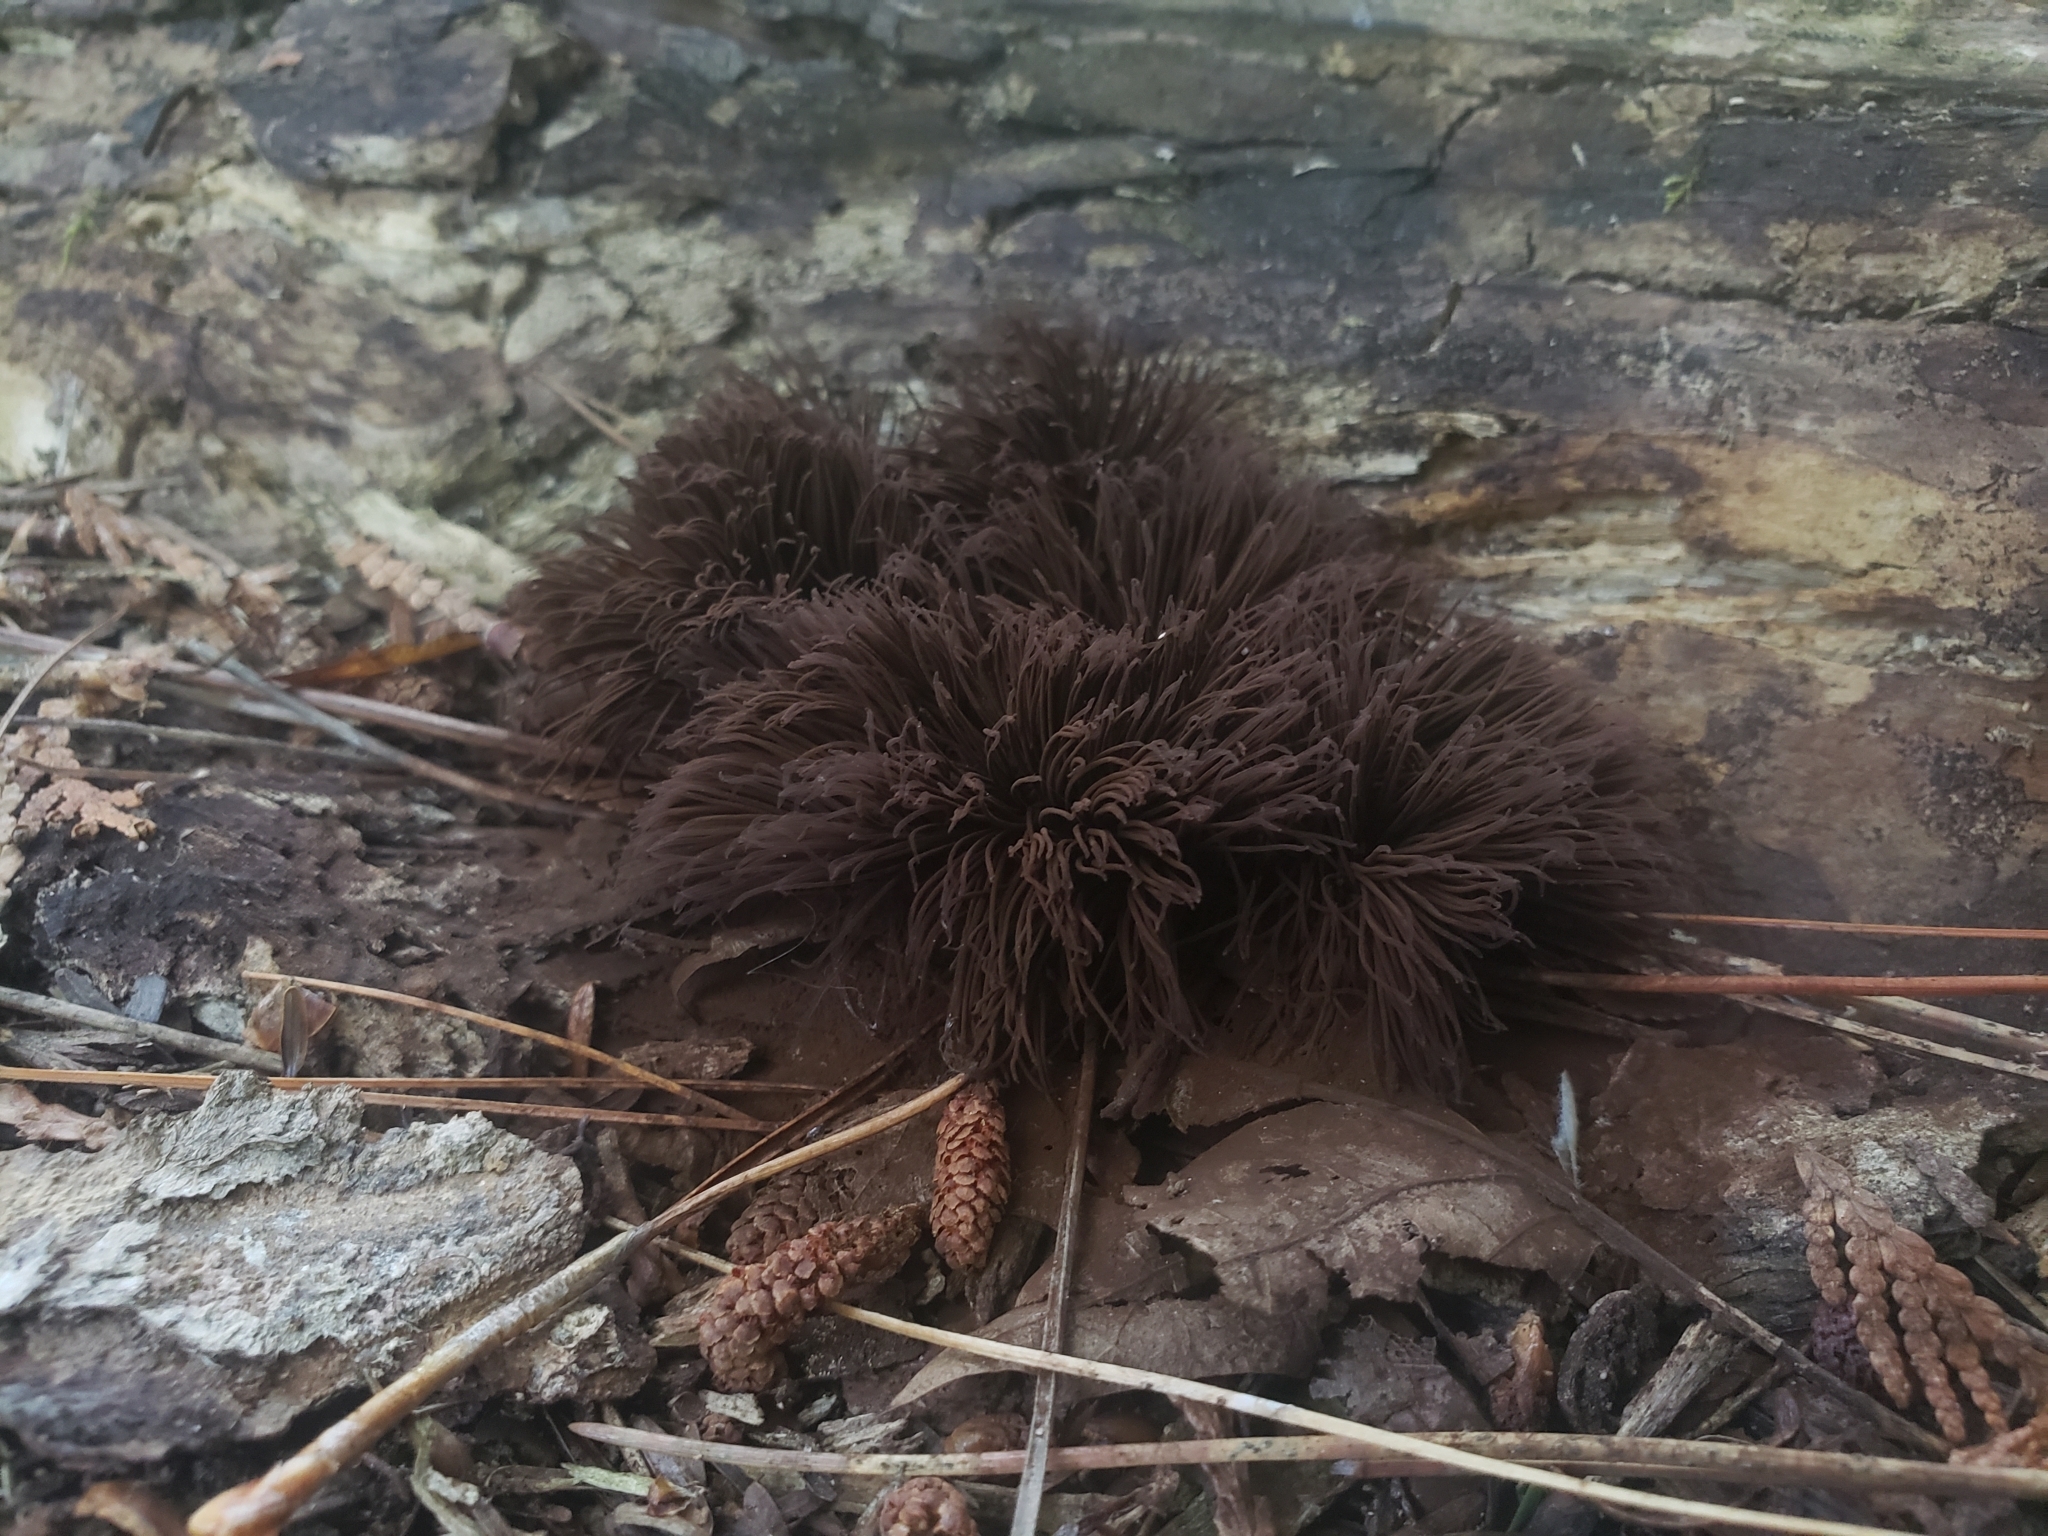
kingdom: Protozoa
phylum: Mycetozoa
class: Myxomycetes
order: Stemonitidales
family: Stemonitidaceae
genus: Stemonitis
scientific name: Stemonitis splendens
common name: Chocolate tube slime
